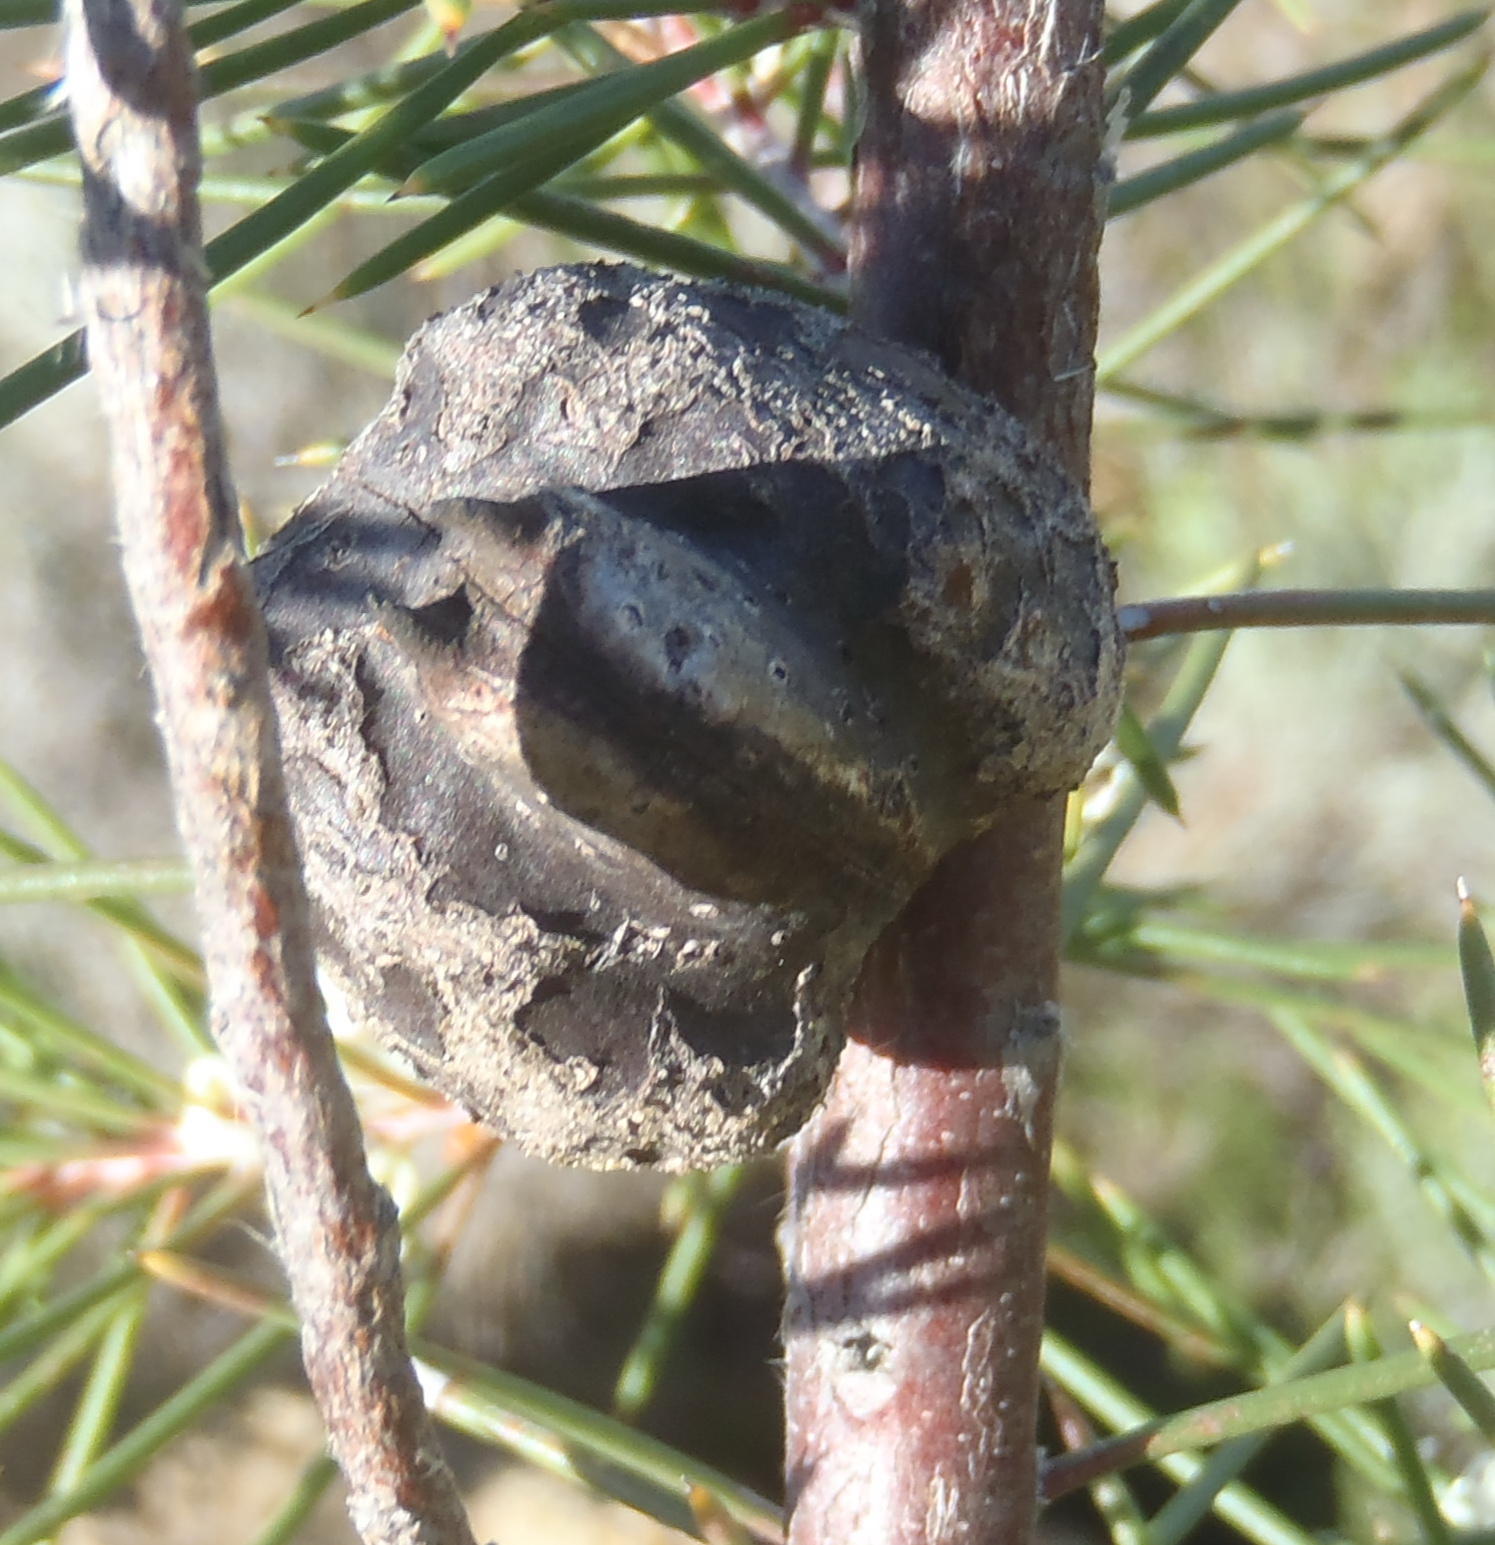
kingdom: Plantae
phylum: Tracheophyta
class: Magnoliopsida
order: Proteales
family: Proteaceae
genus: Hakea
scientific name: Hakea sericea
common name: Needle bush
